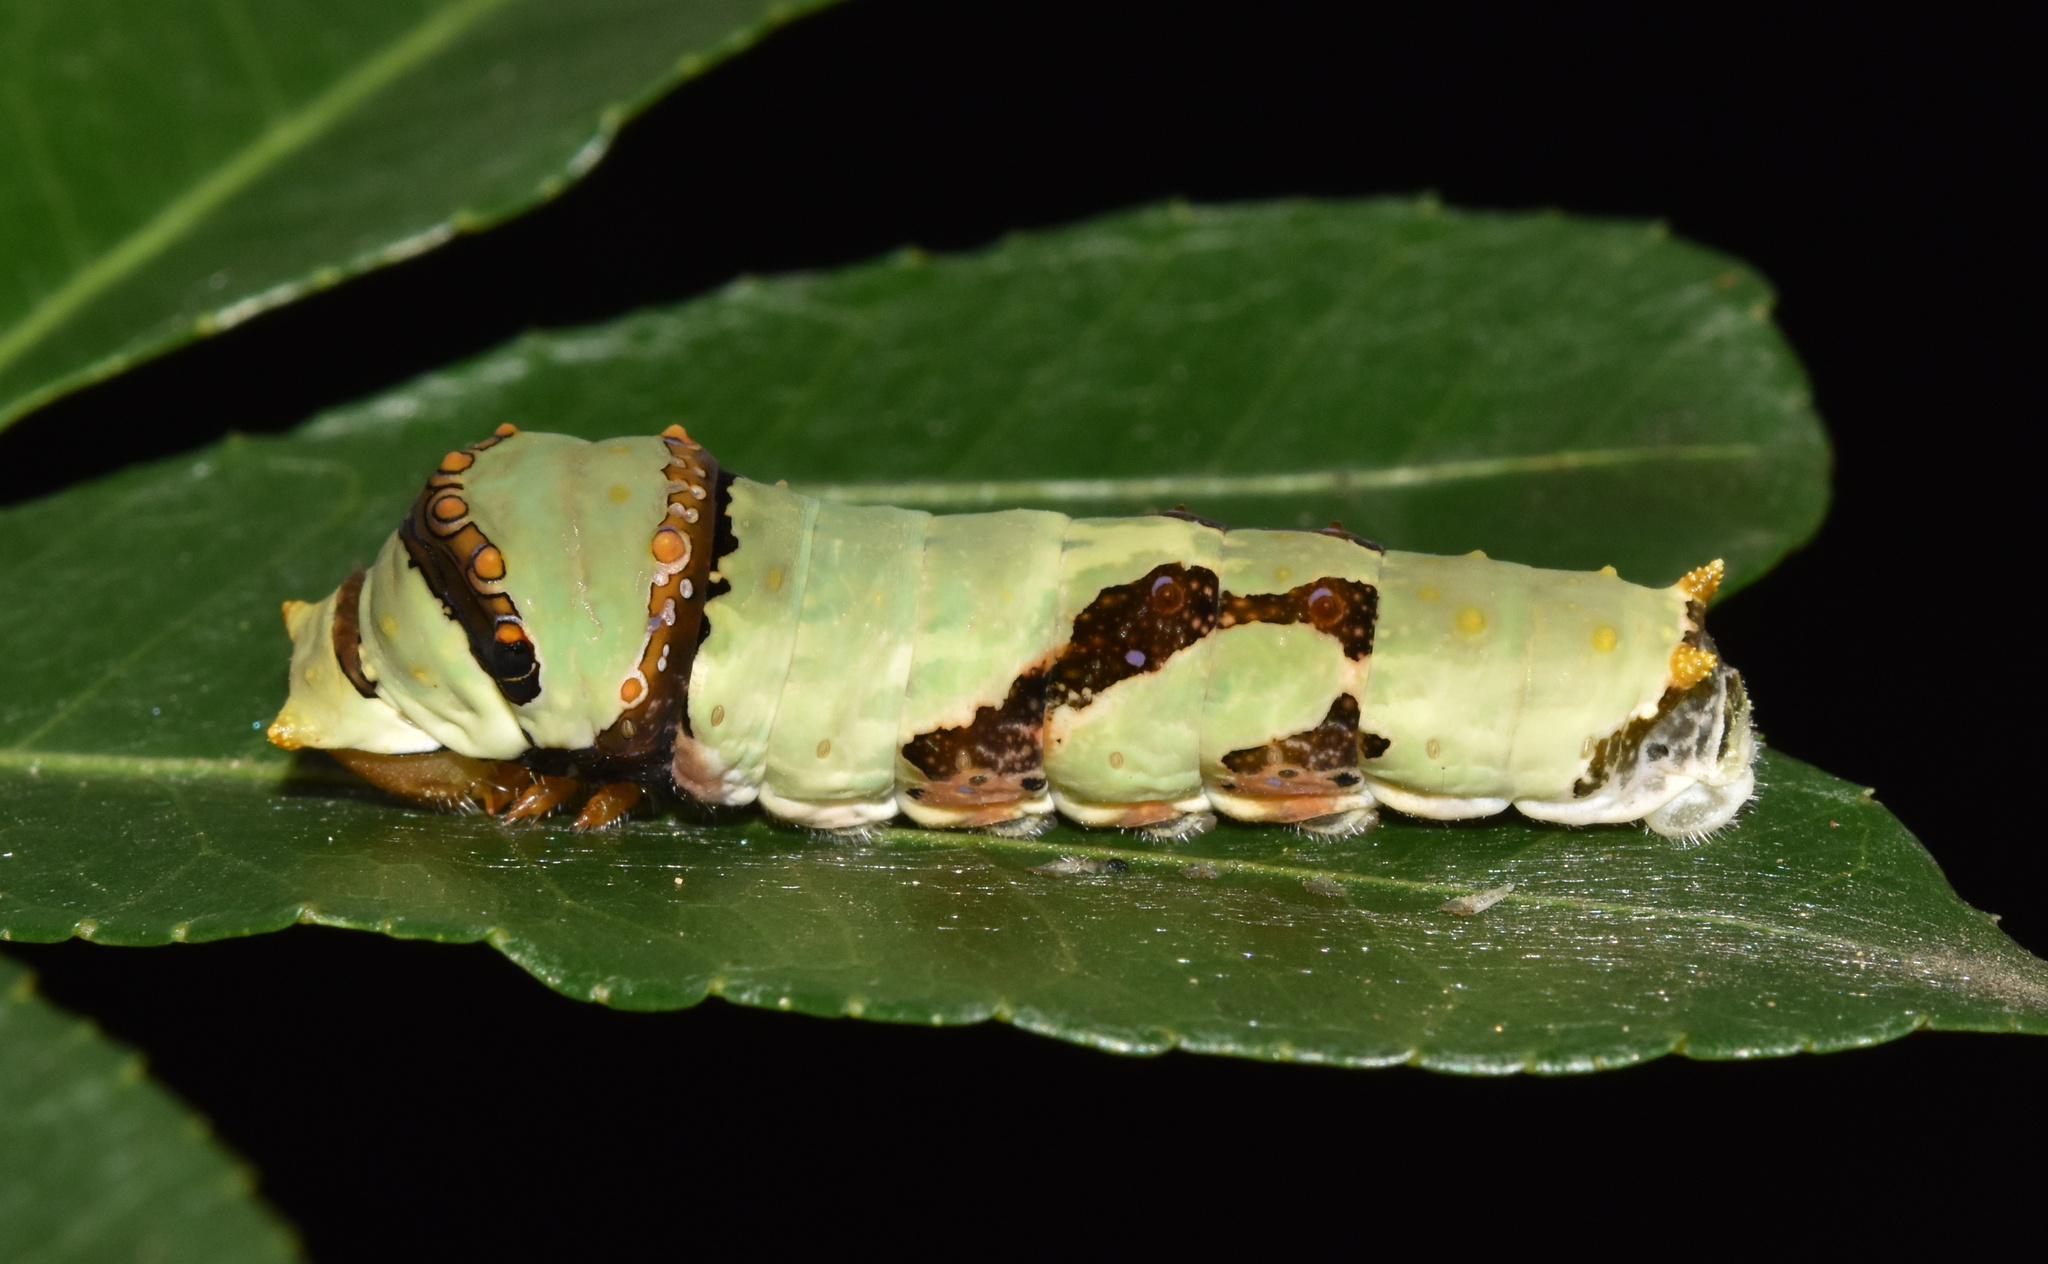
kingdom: Animalia
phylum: Arthropoda
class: Insecta
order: Lepidoptera
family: Papilionidae
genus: Papilio
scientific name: Papilio demodocus
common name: Christmas butterfly
